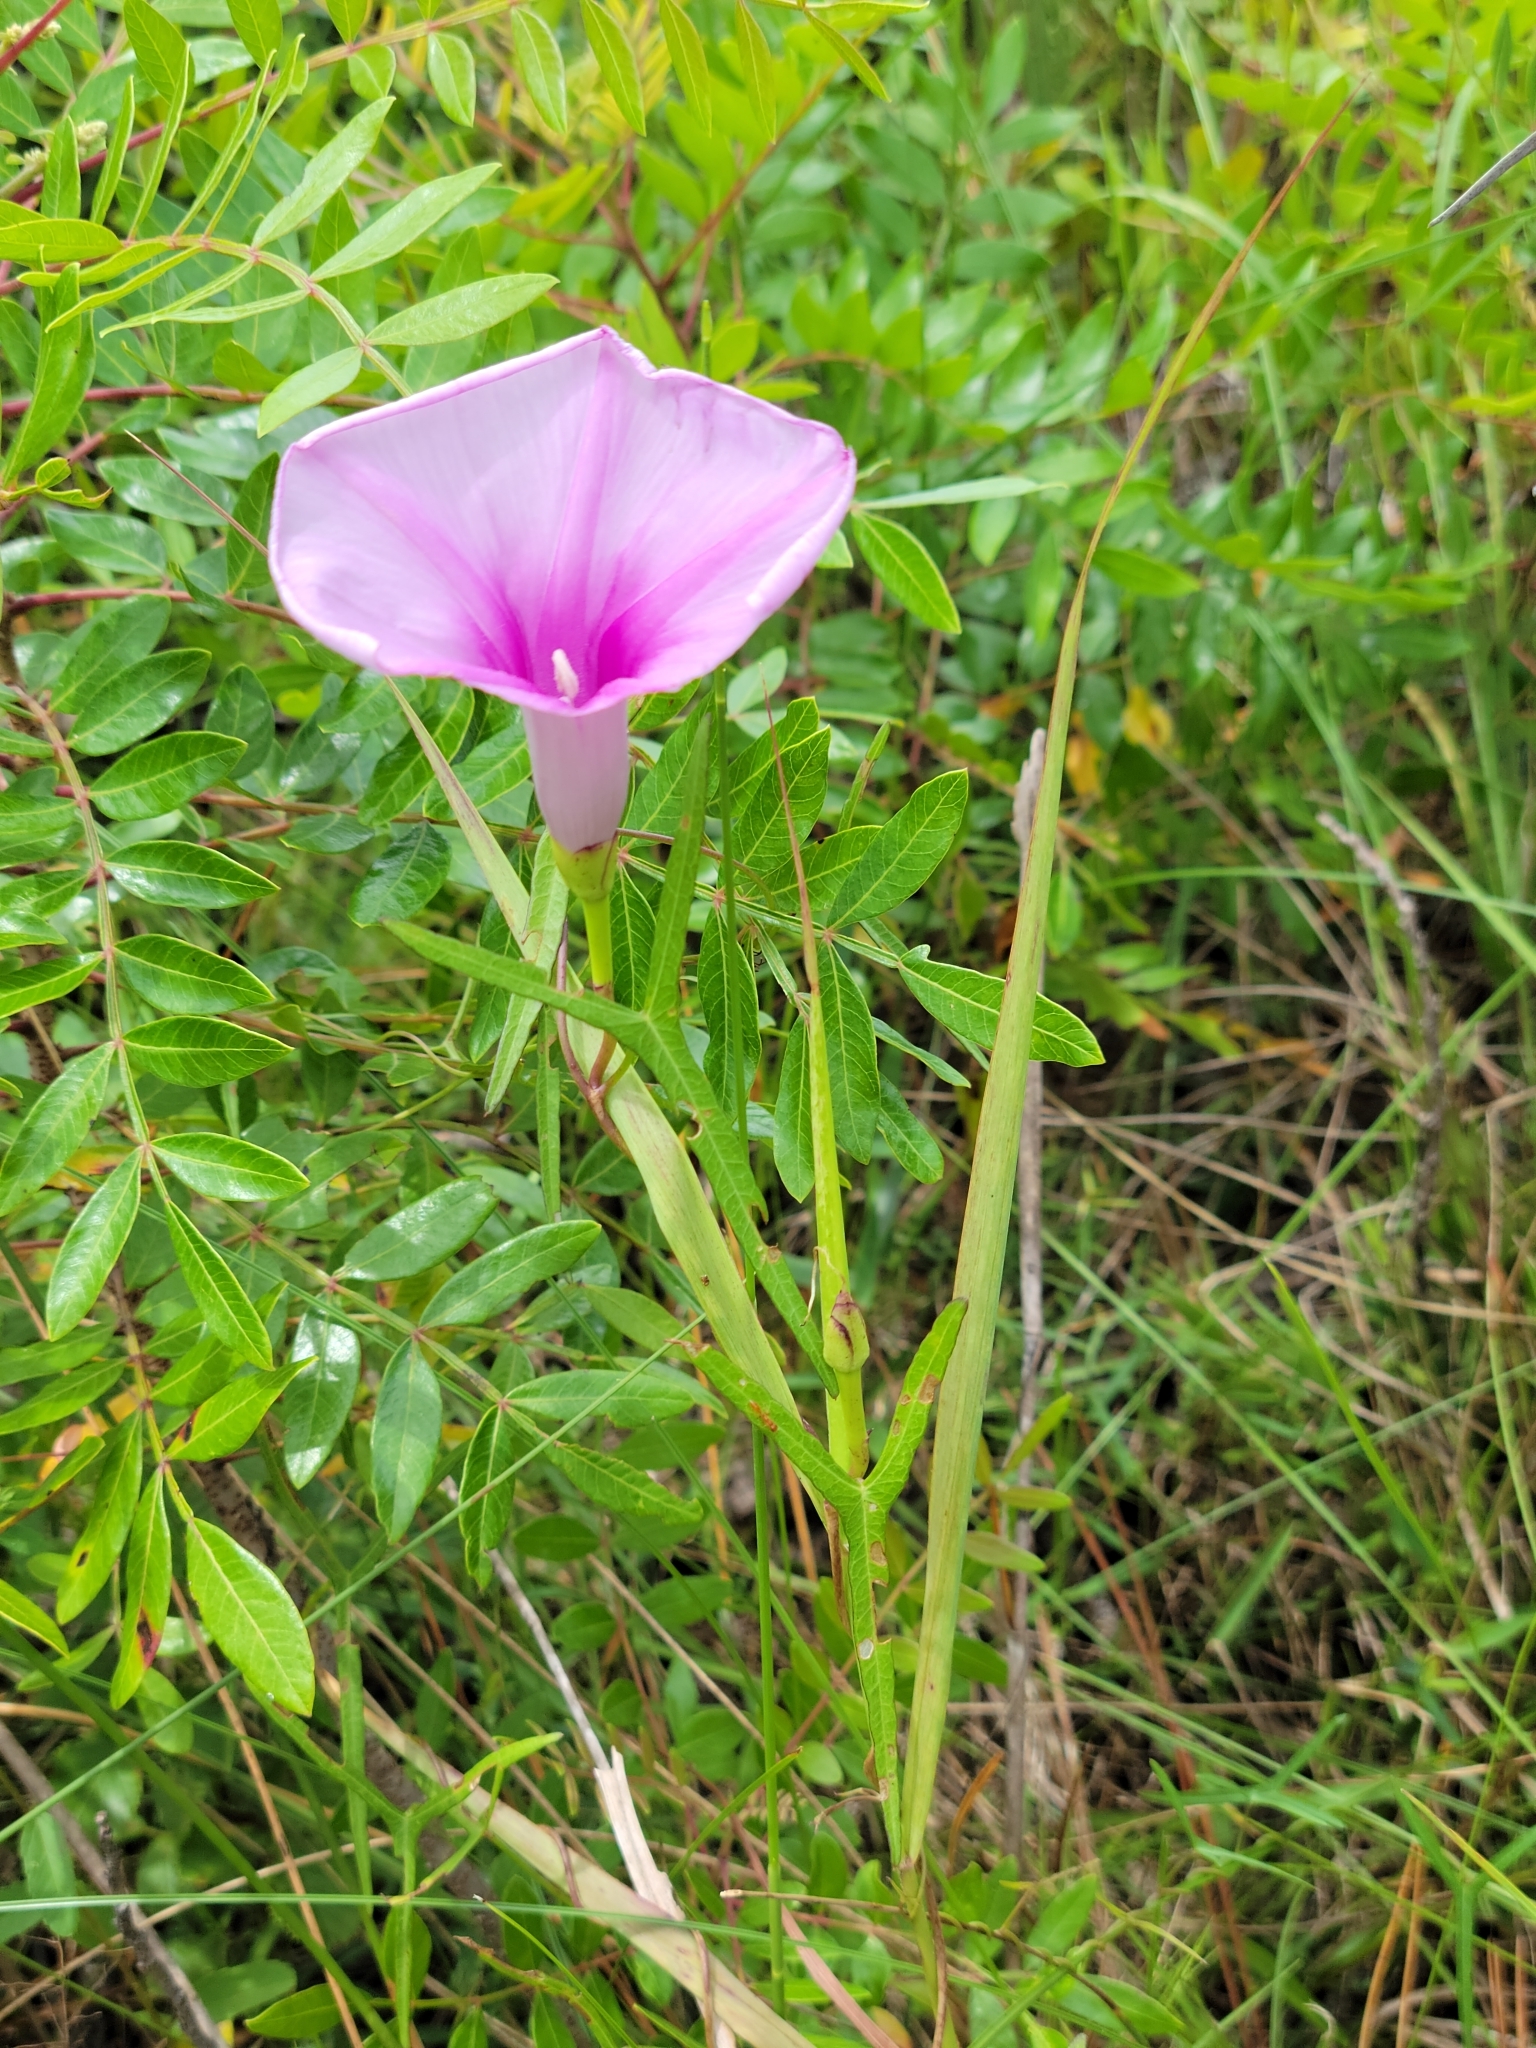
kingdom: Plantae
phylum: Tracheophyta
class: Magnoliopsida
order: Solanales
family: Convolvulaceae
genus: Ipomoea
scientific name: Ipomoea sagittata
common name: Saltmarsh morning glory
